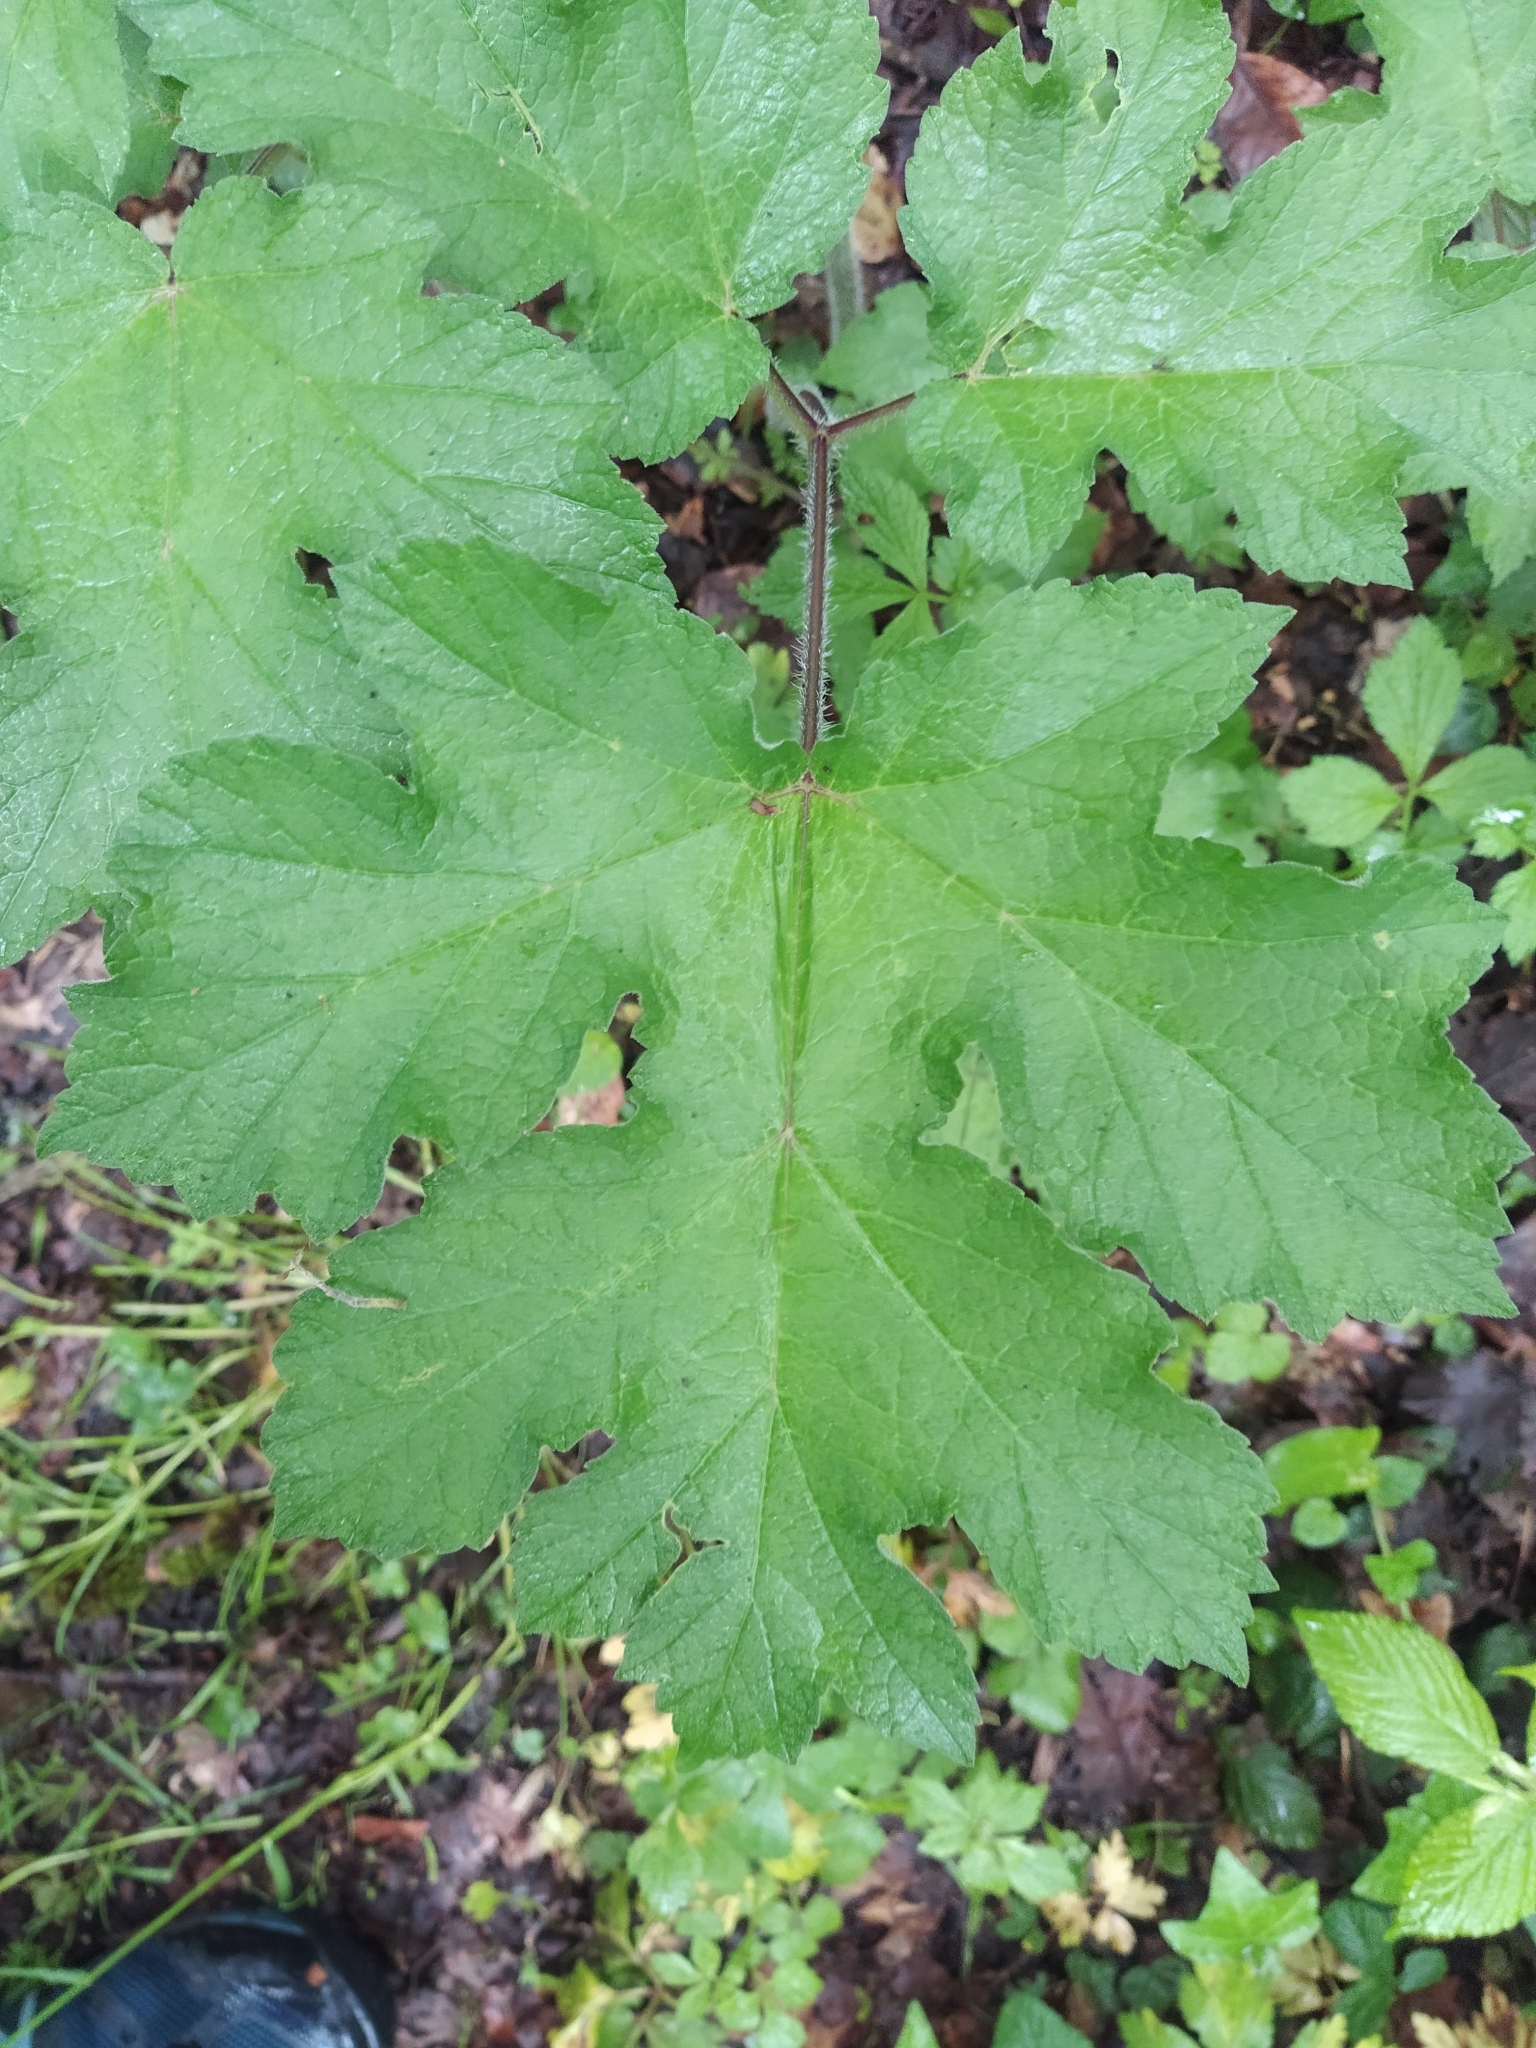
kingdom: Plantae
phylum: Tracheophyta
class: Magnoliopsida
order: Apiales
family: Apiaceae
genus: Heracleum
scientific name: Heracleum sphondylium
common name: Hogweed
